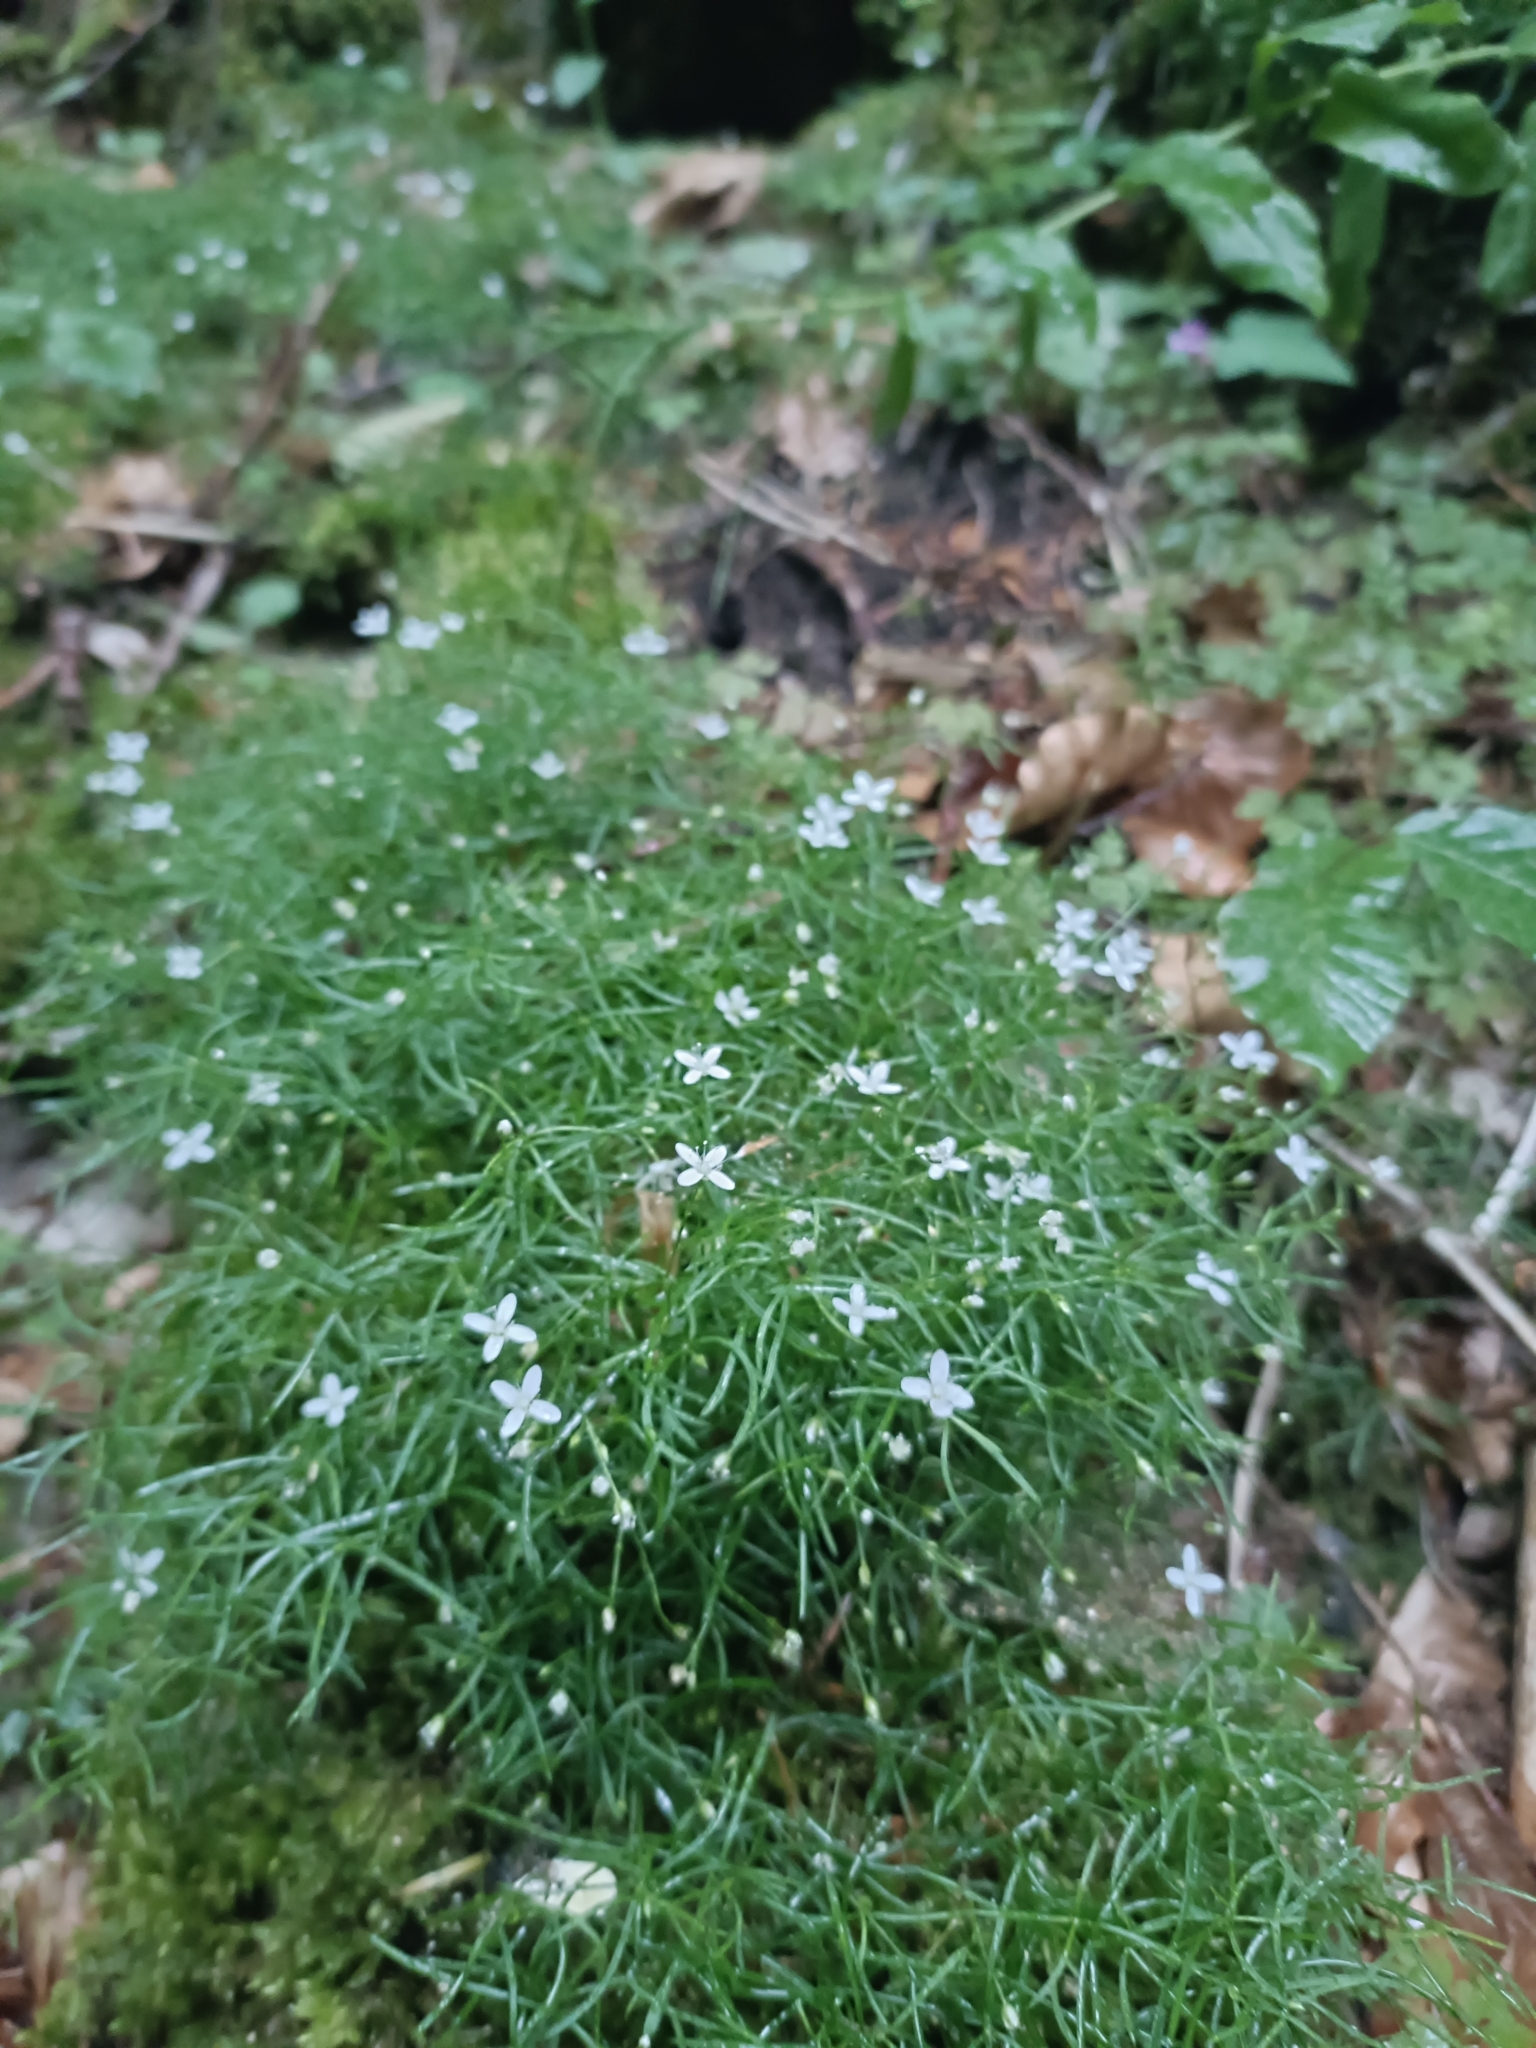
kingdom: Plantae
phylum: Tracheophyta
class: Magnoliopsida
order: Caryophyllales
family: Caryophyllaceae
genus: Moehringia
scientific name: Moehringia muscosa
